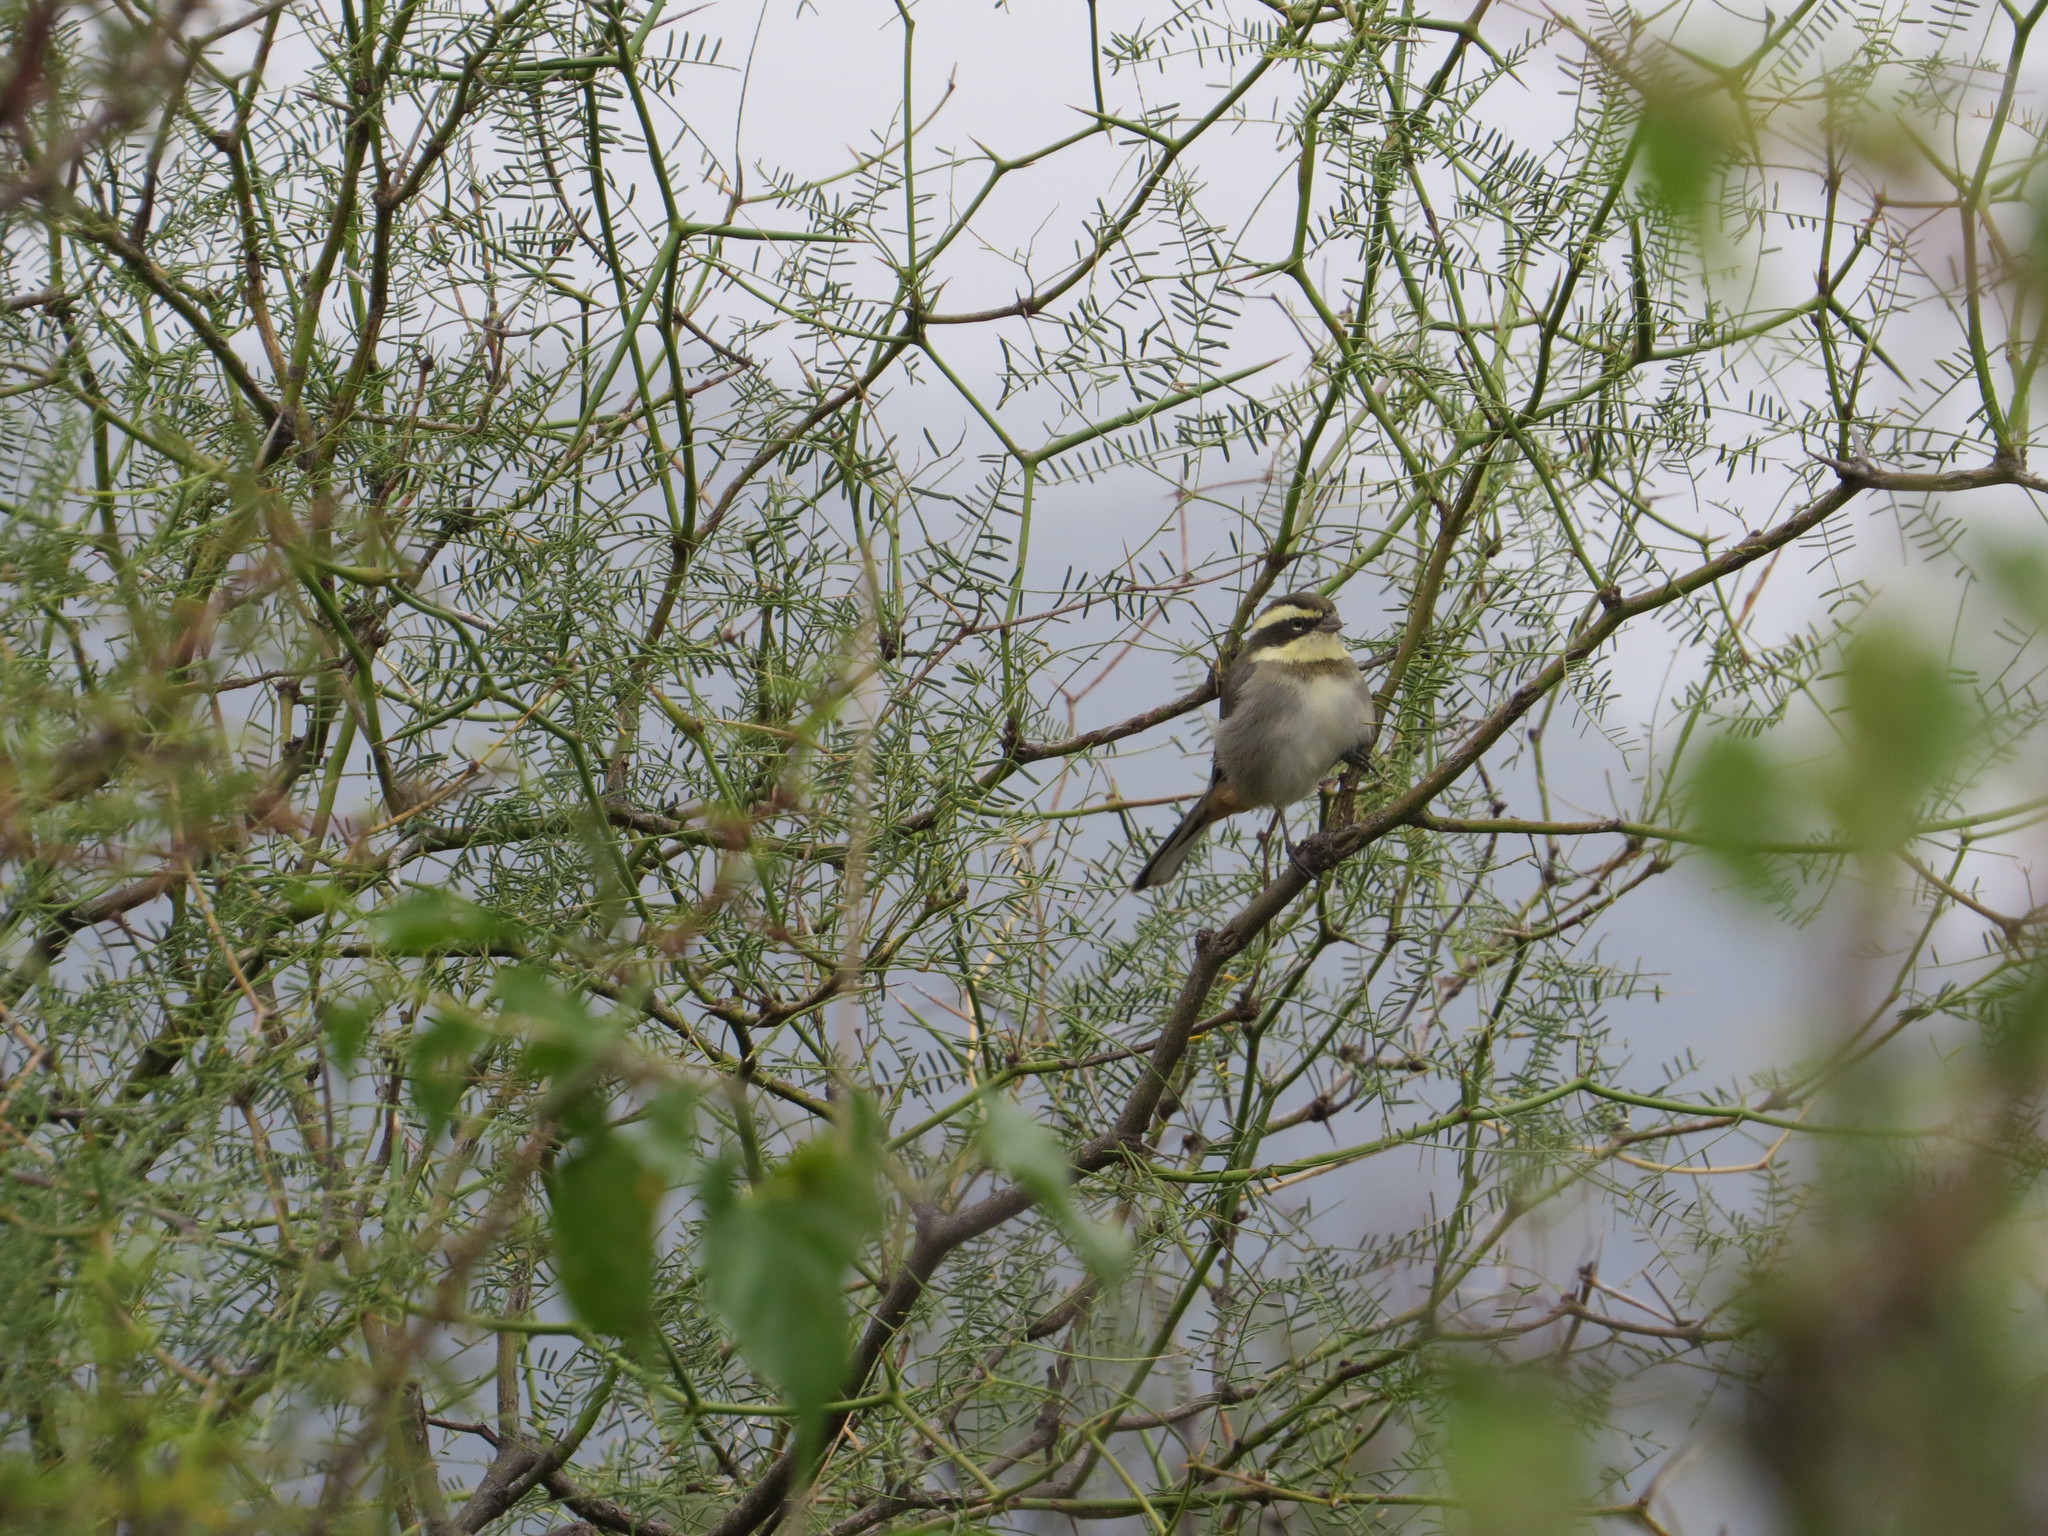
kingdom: Animalia
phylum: Chordata
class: Aves
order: Passeriformes
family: Thraupidae
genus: Microspingus
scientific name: Microspingus torquatus
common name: Ringed warbling-finch
